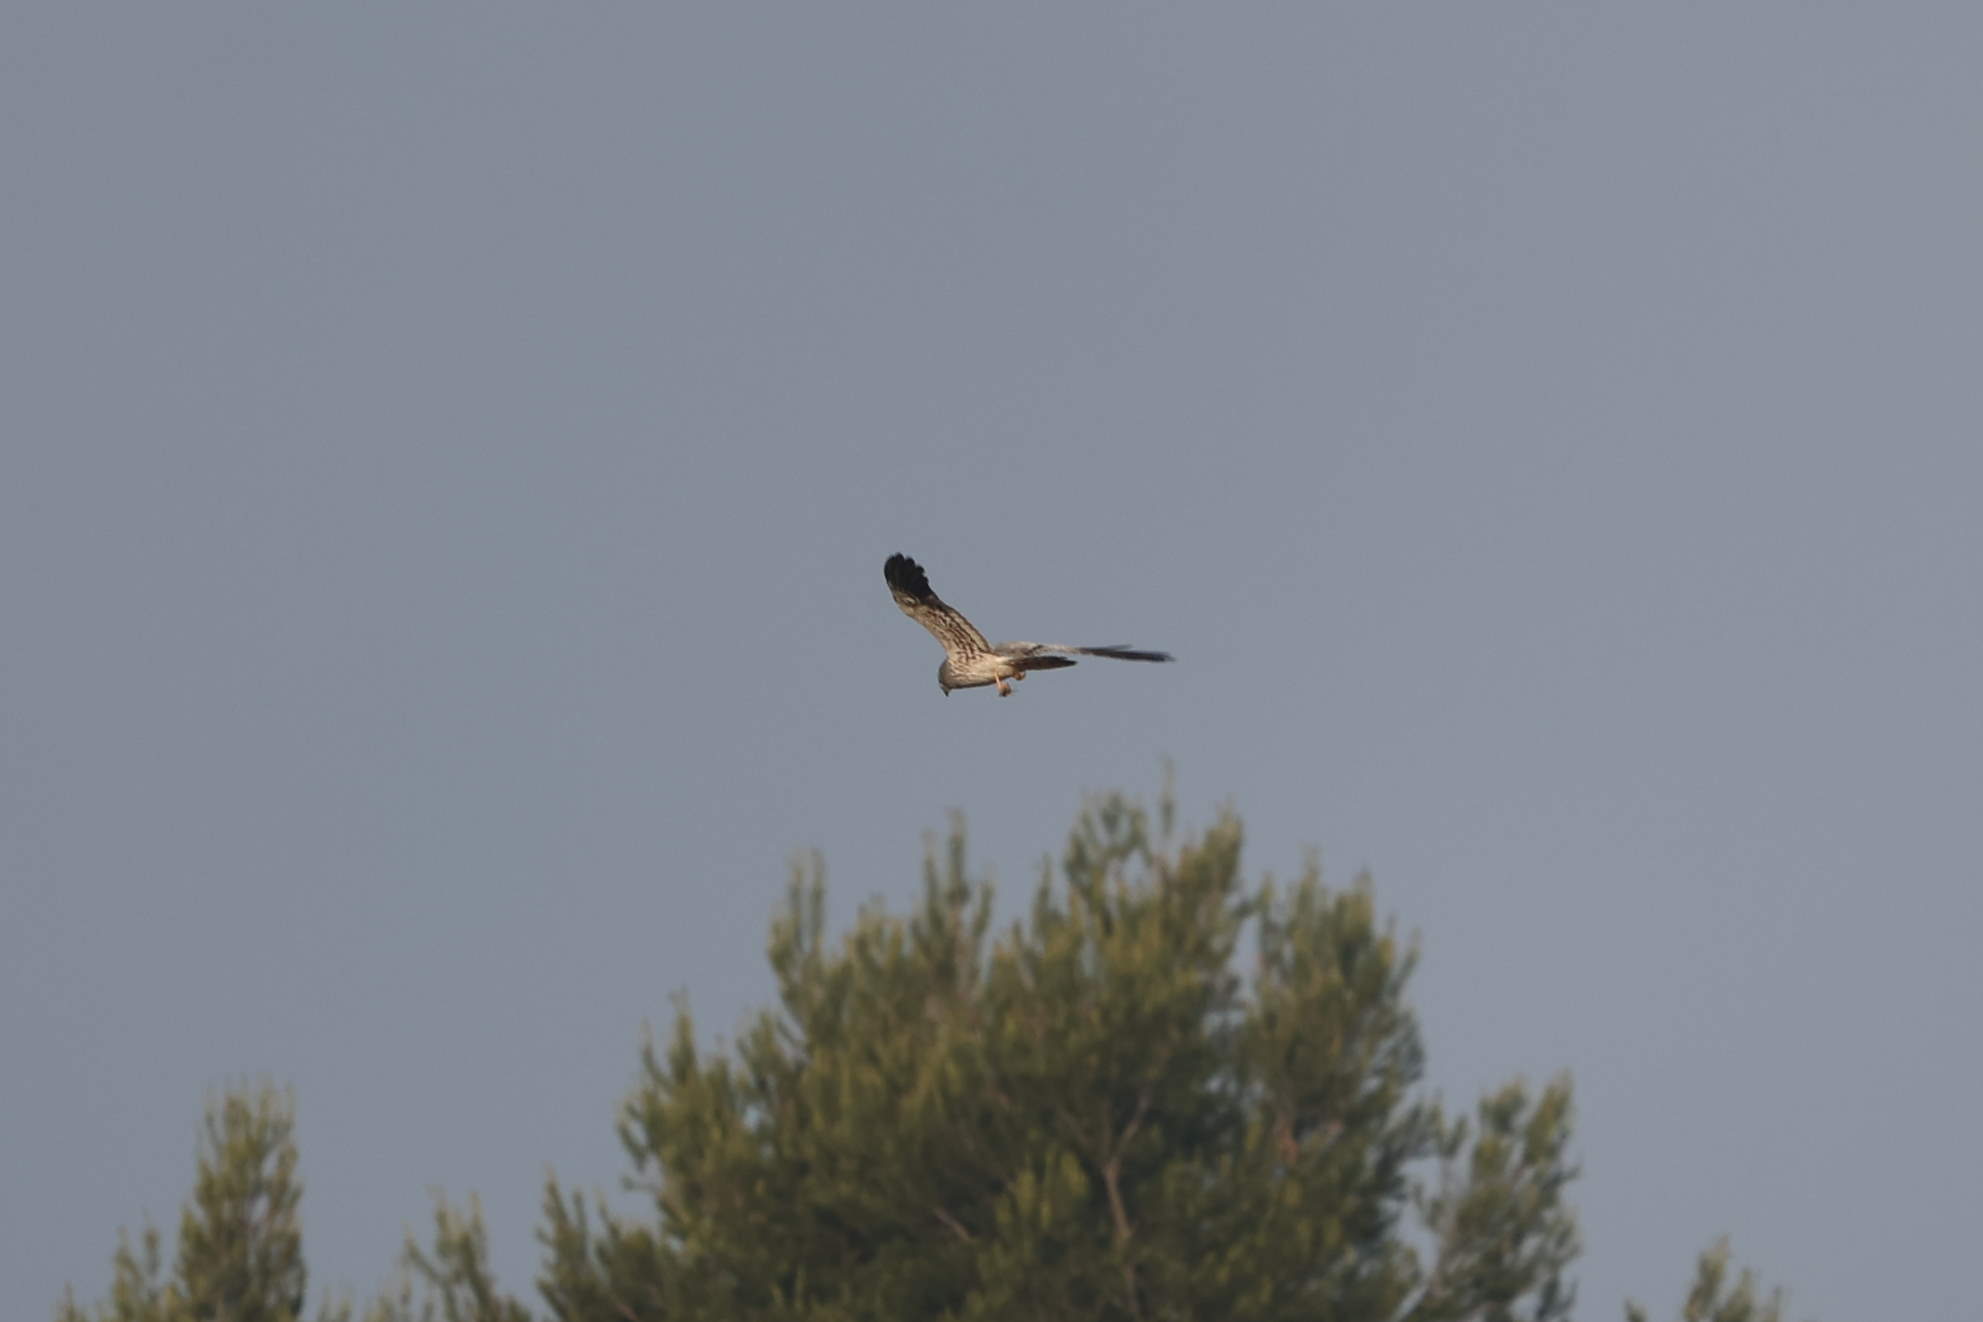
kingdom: Animalia
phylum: Chordata
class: Aves
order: Accipitriformes
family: Accipitridae
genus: Circus
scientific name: Circus pygargus
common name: Montagu's harrier
